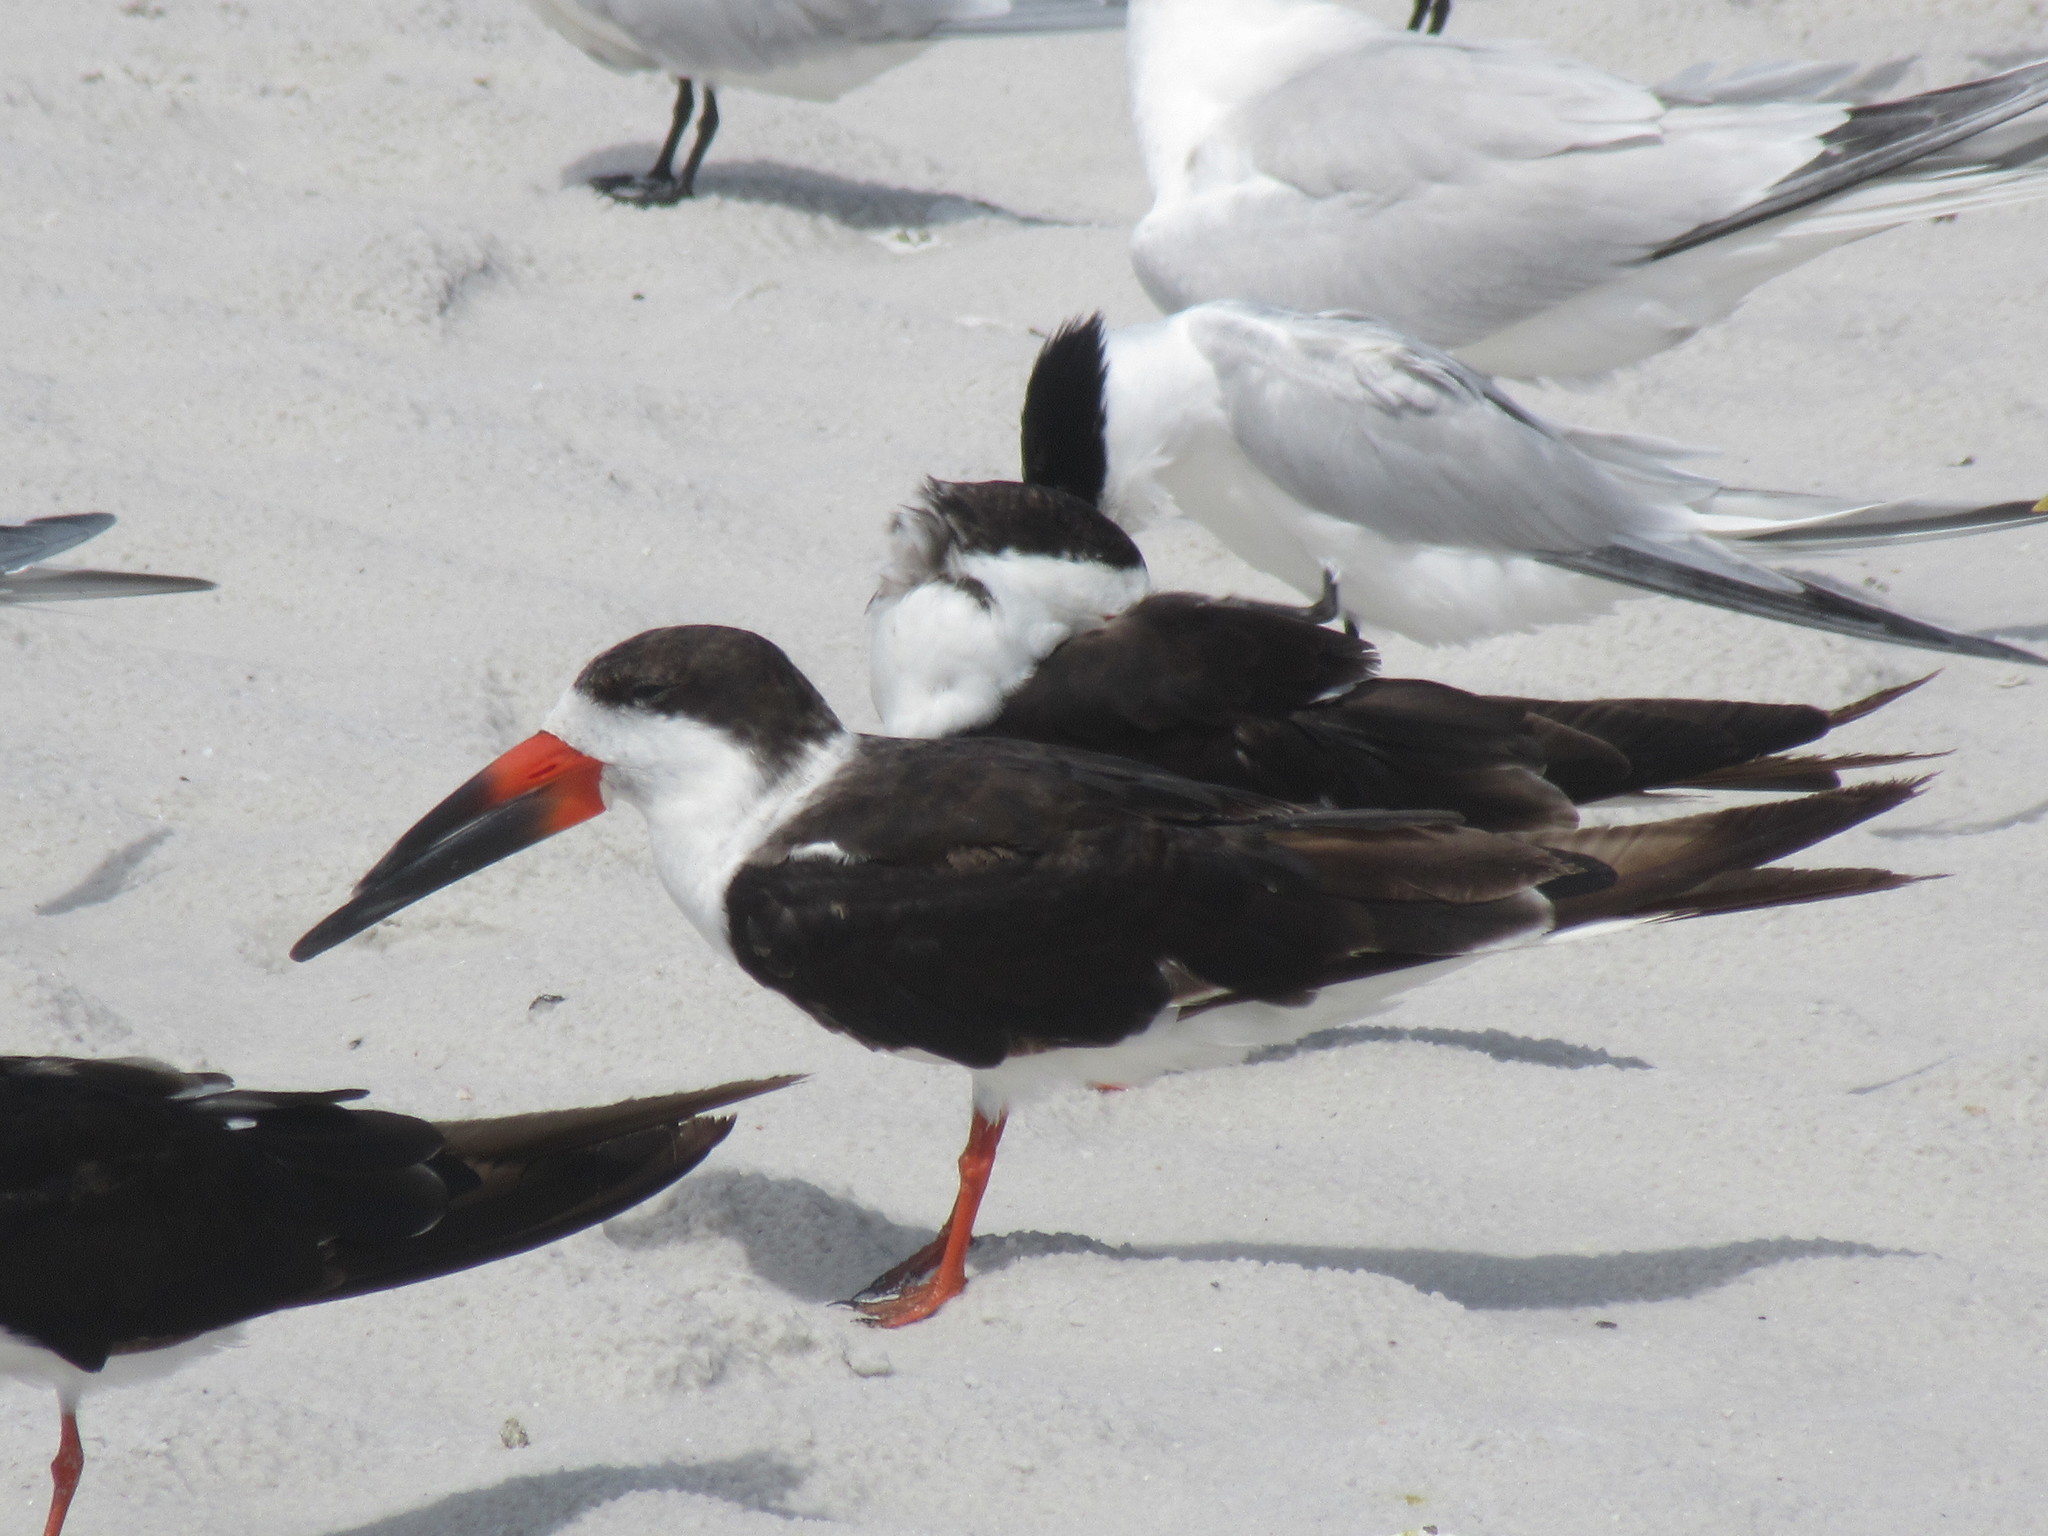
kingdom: Animalia
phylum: Chordata
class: Aves
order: Charadriiformes
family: Laridae
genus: Rynchops
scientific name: Rynchops niger
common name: Black skimmer
